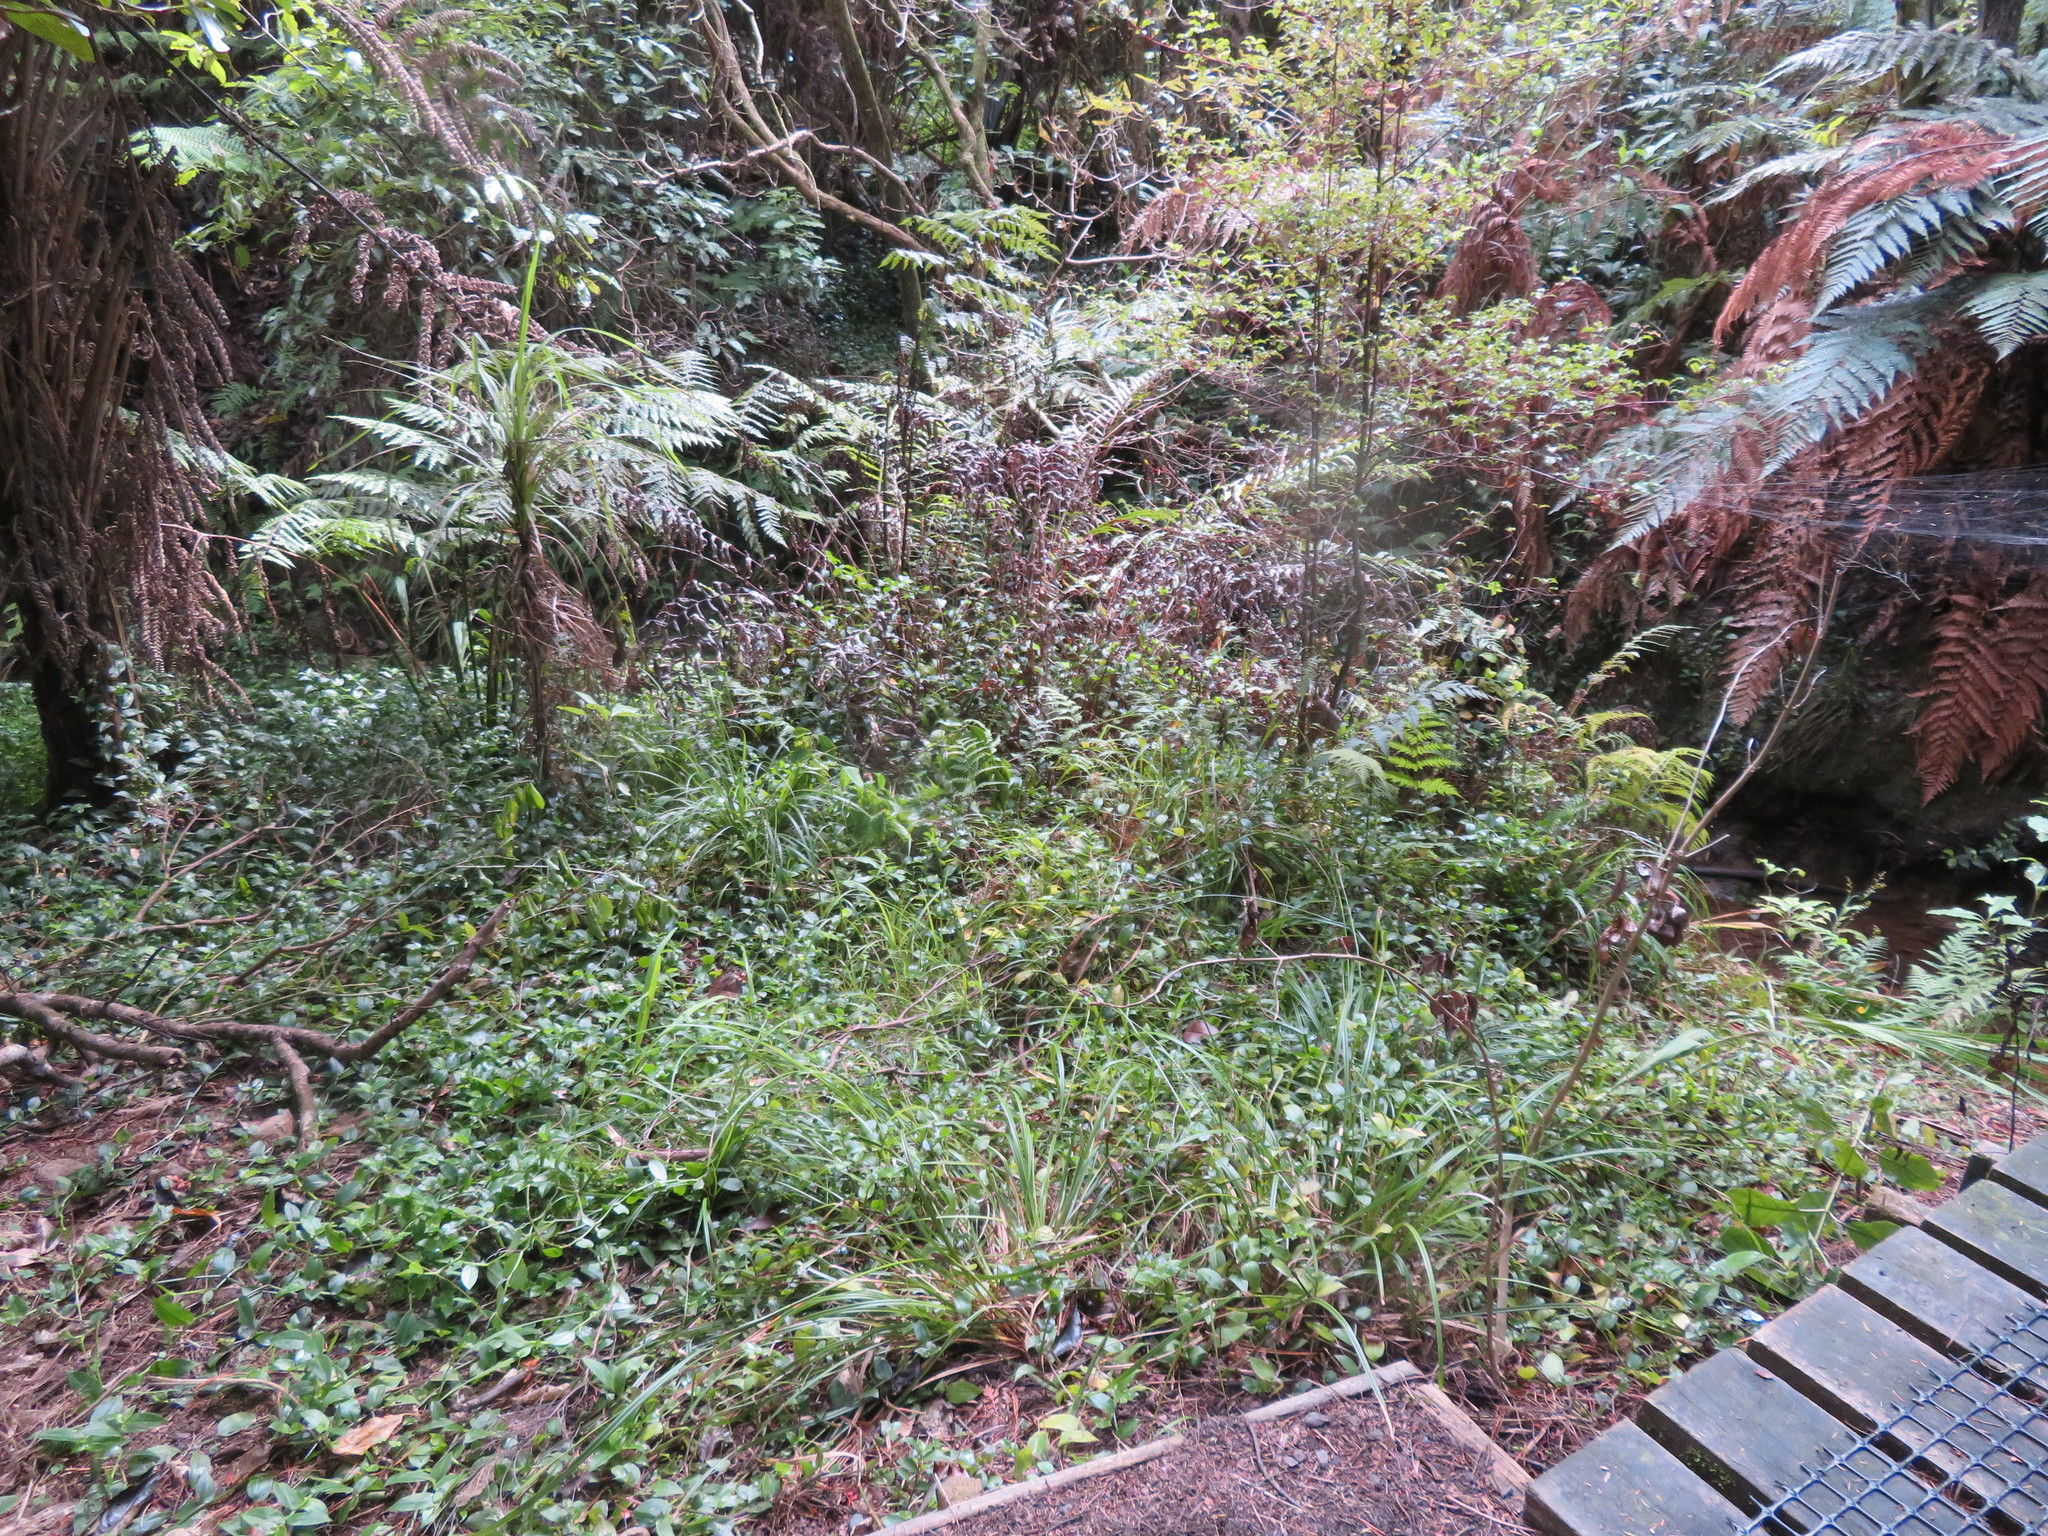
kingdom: Plantae
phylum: Tracheophyta
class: Liliopsida
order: Commelinales
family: Commelinaceae
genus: Tradescantia
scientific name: Tradescantia fluminensis
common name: Wandering-jew
